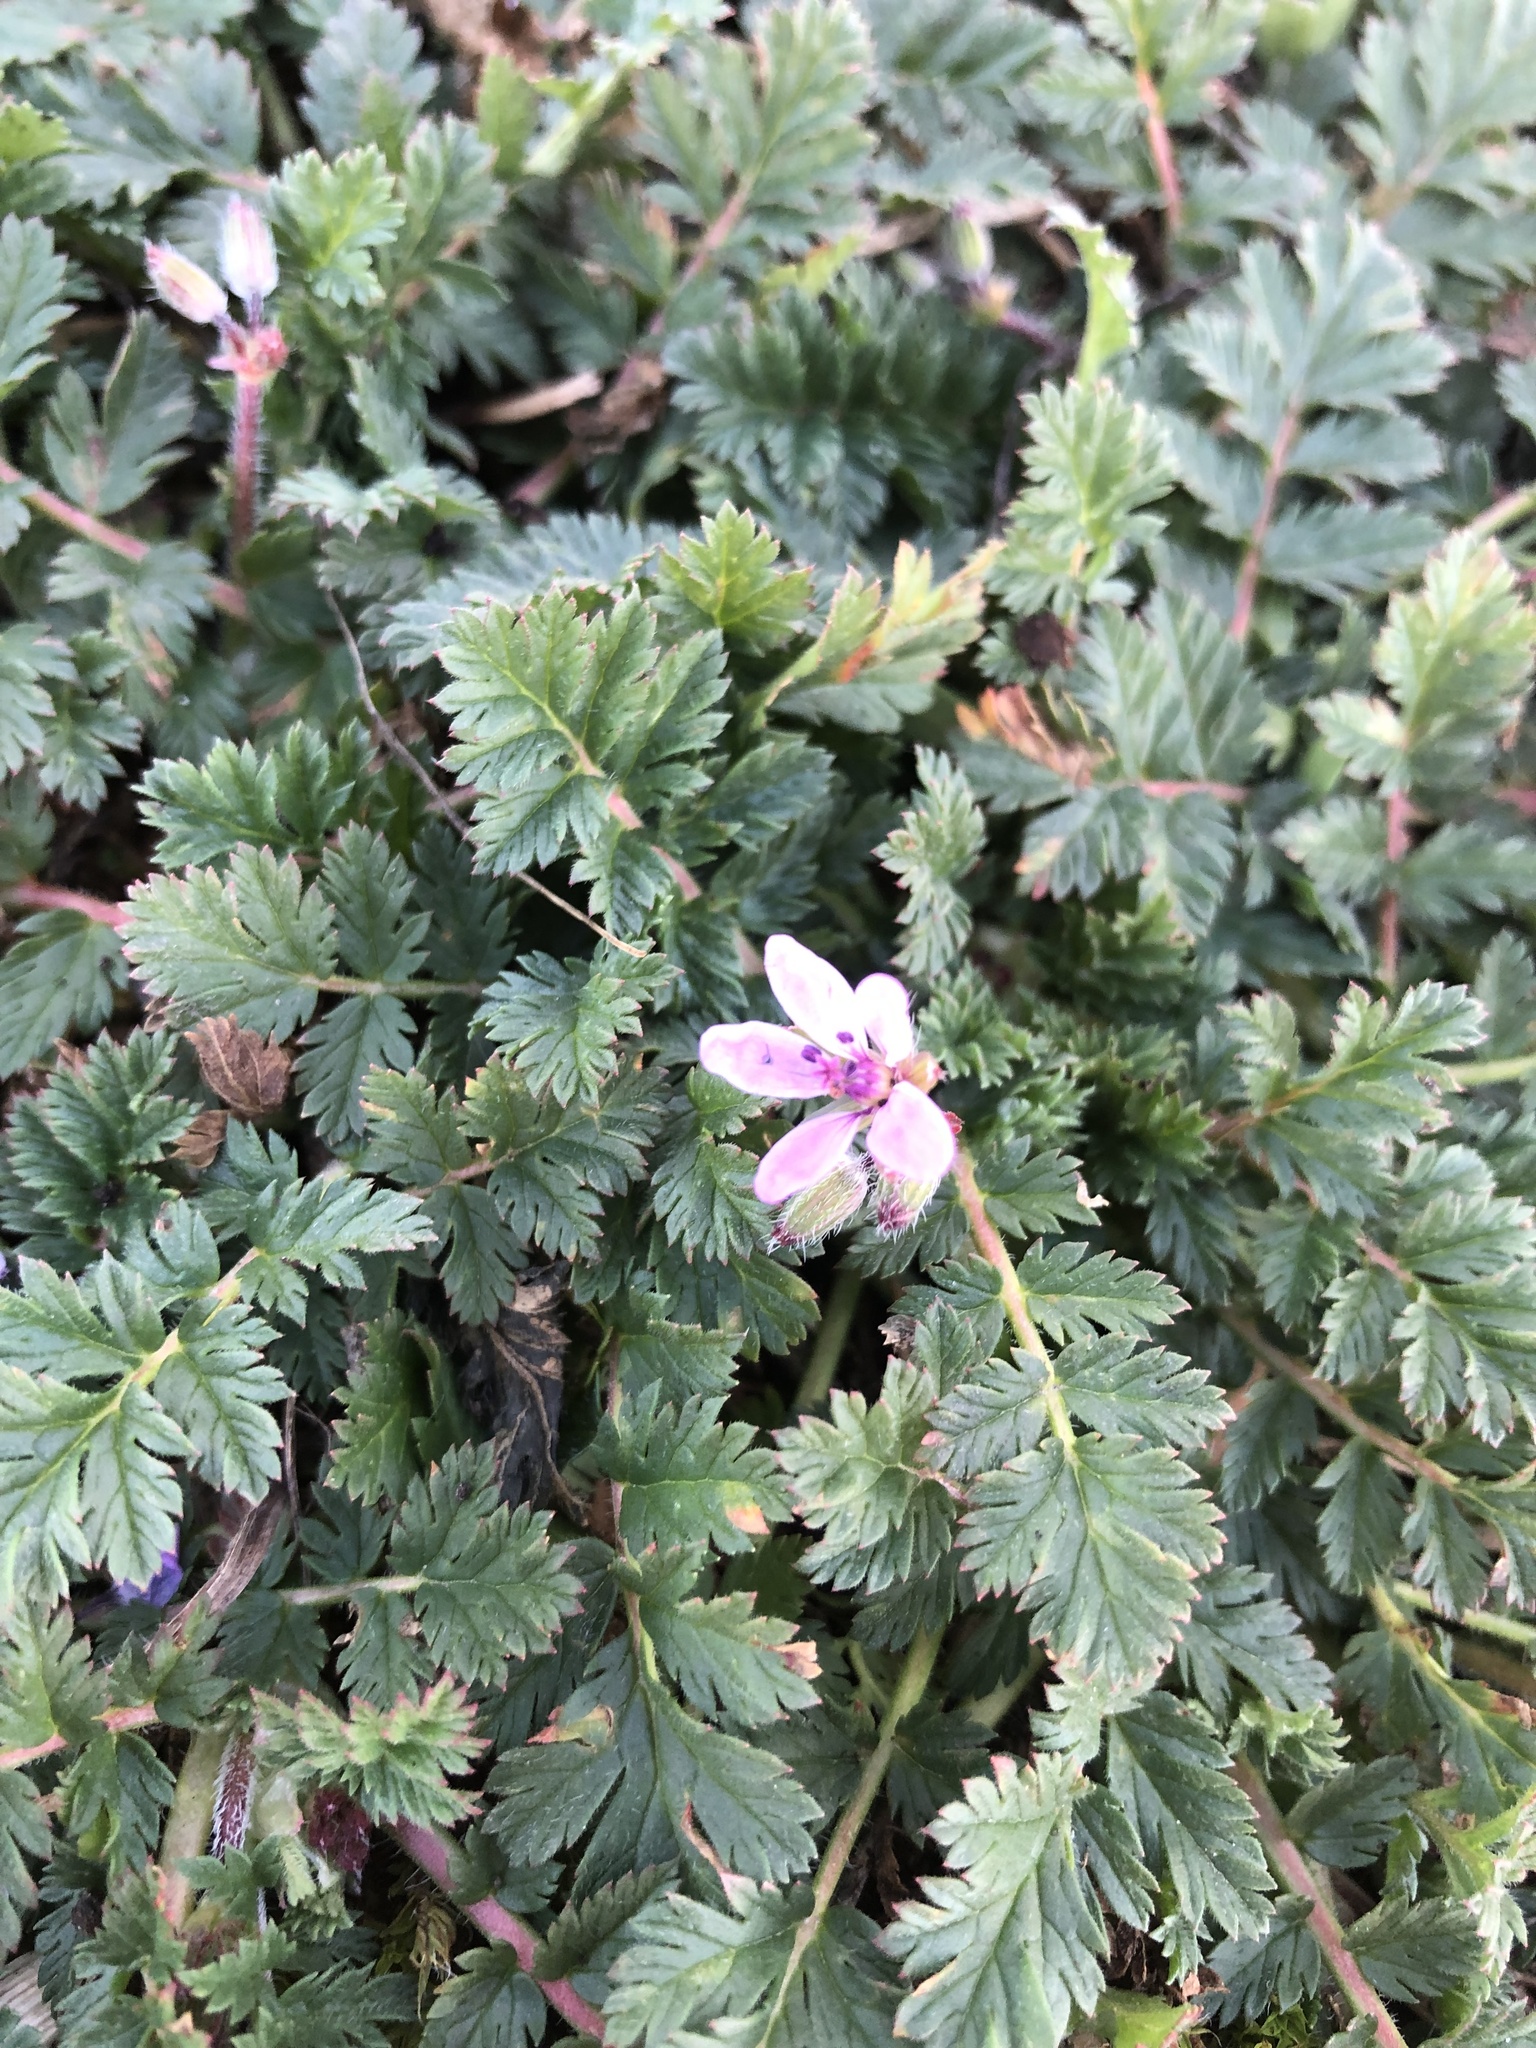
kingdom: Plantae
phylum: Tracheophyta
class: Magnoliopsida
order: Geraniales
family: Geraniaceae
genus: Erodium
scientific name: Erodium cicutarium
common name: Common stork's-bill
